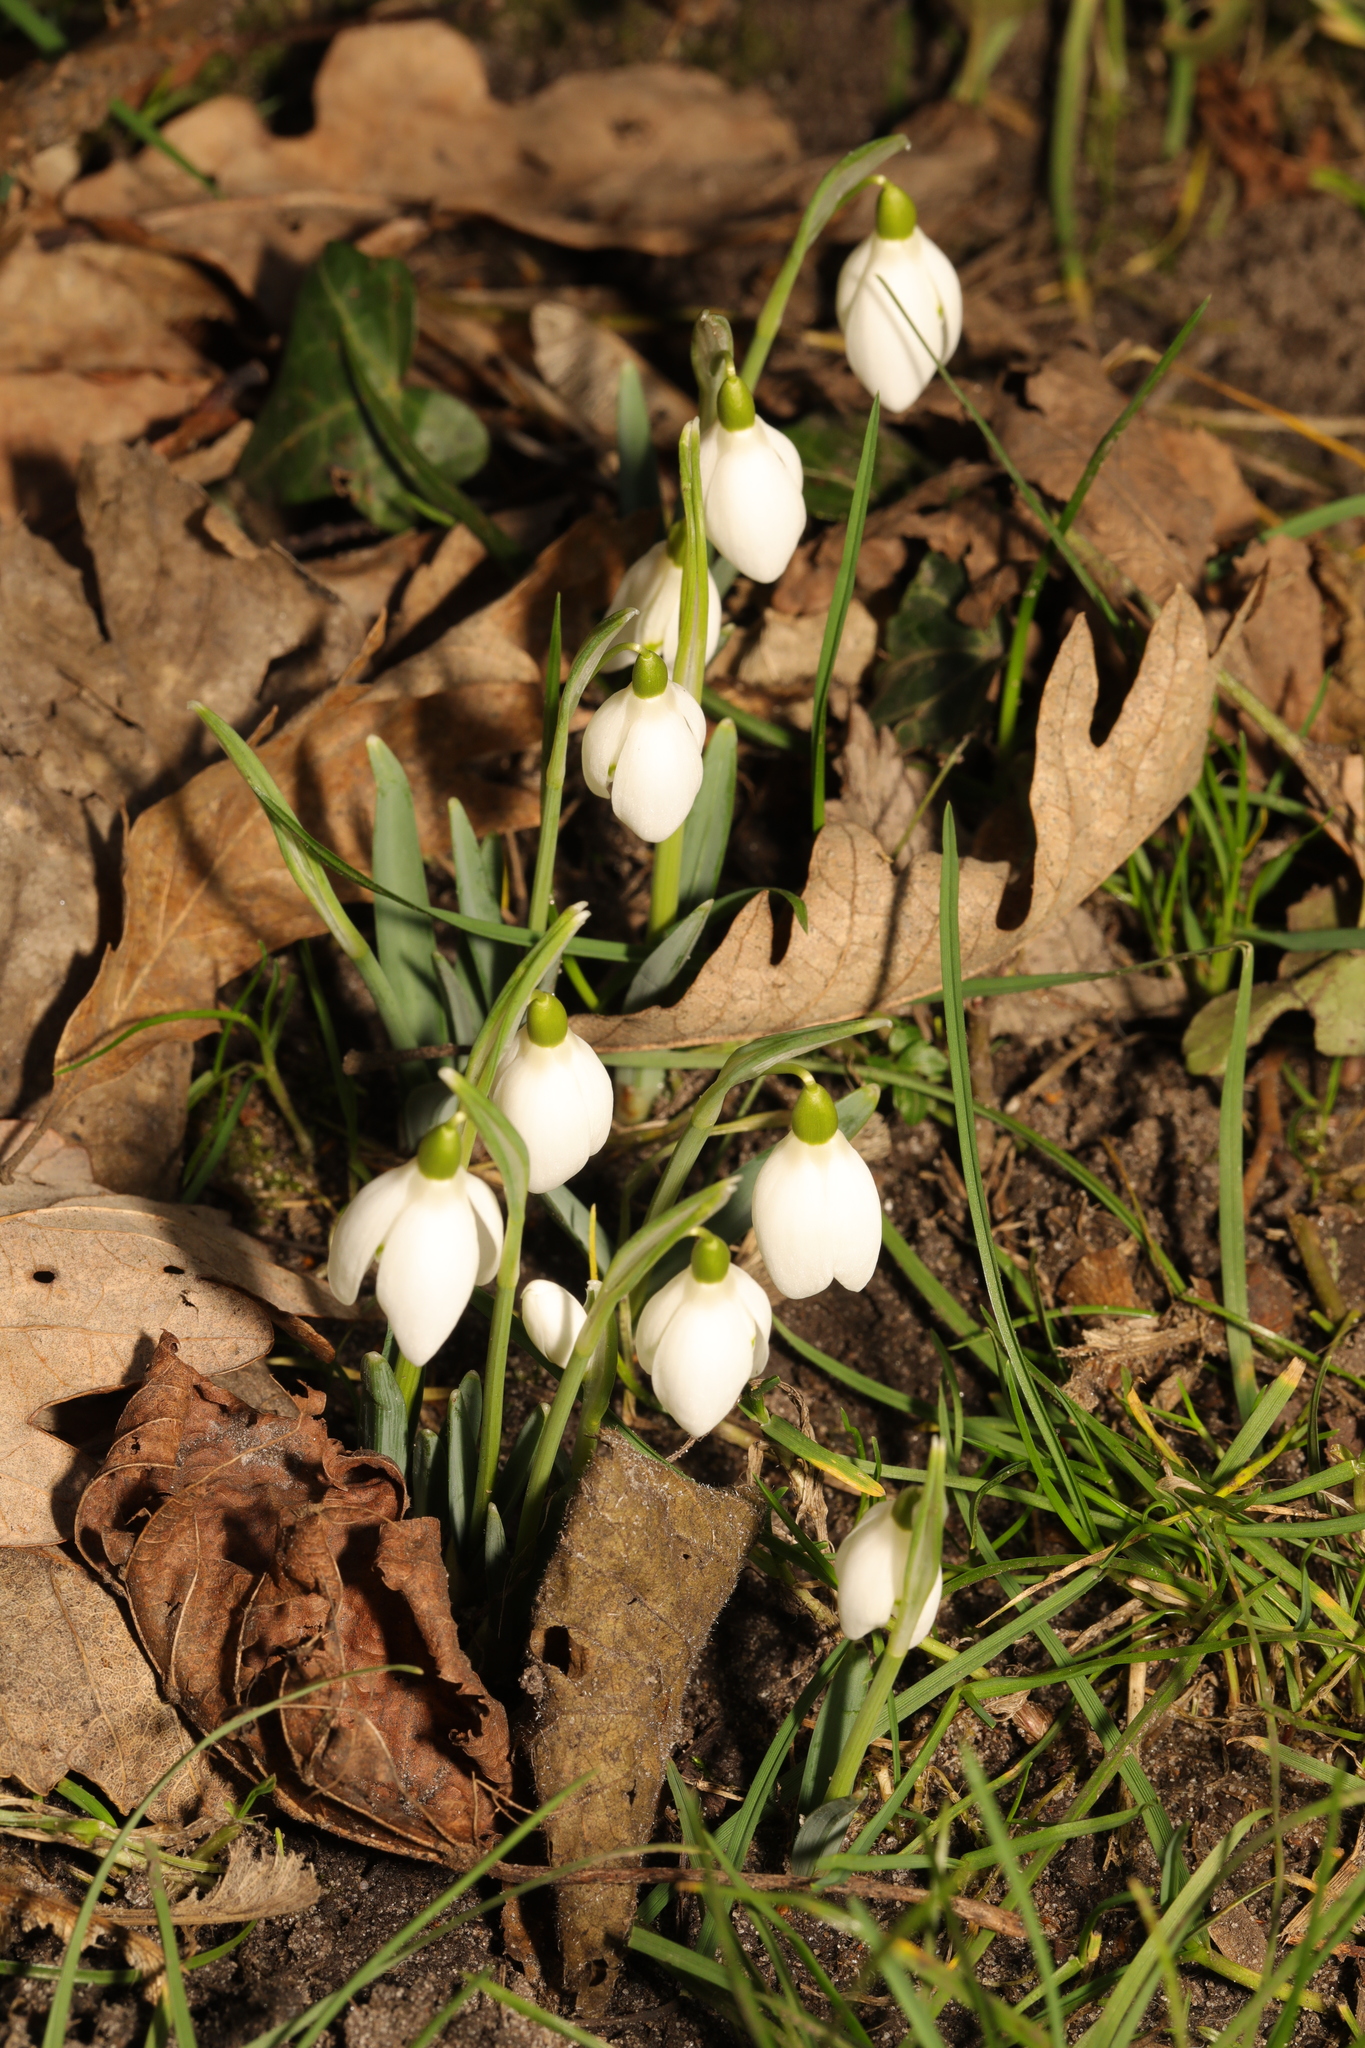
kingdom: Plantae
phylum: Tracheophyta
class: Liliopsida
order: Asparagales
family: Amaryllidaceae
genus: Galanthus
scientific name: Galanthus nivalis
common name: Snowdrop
